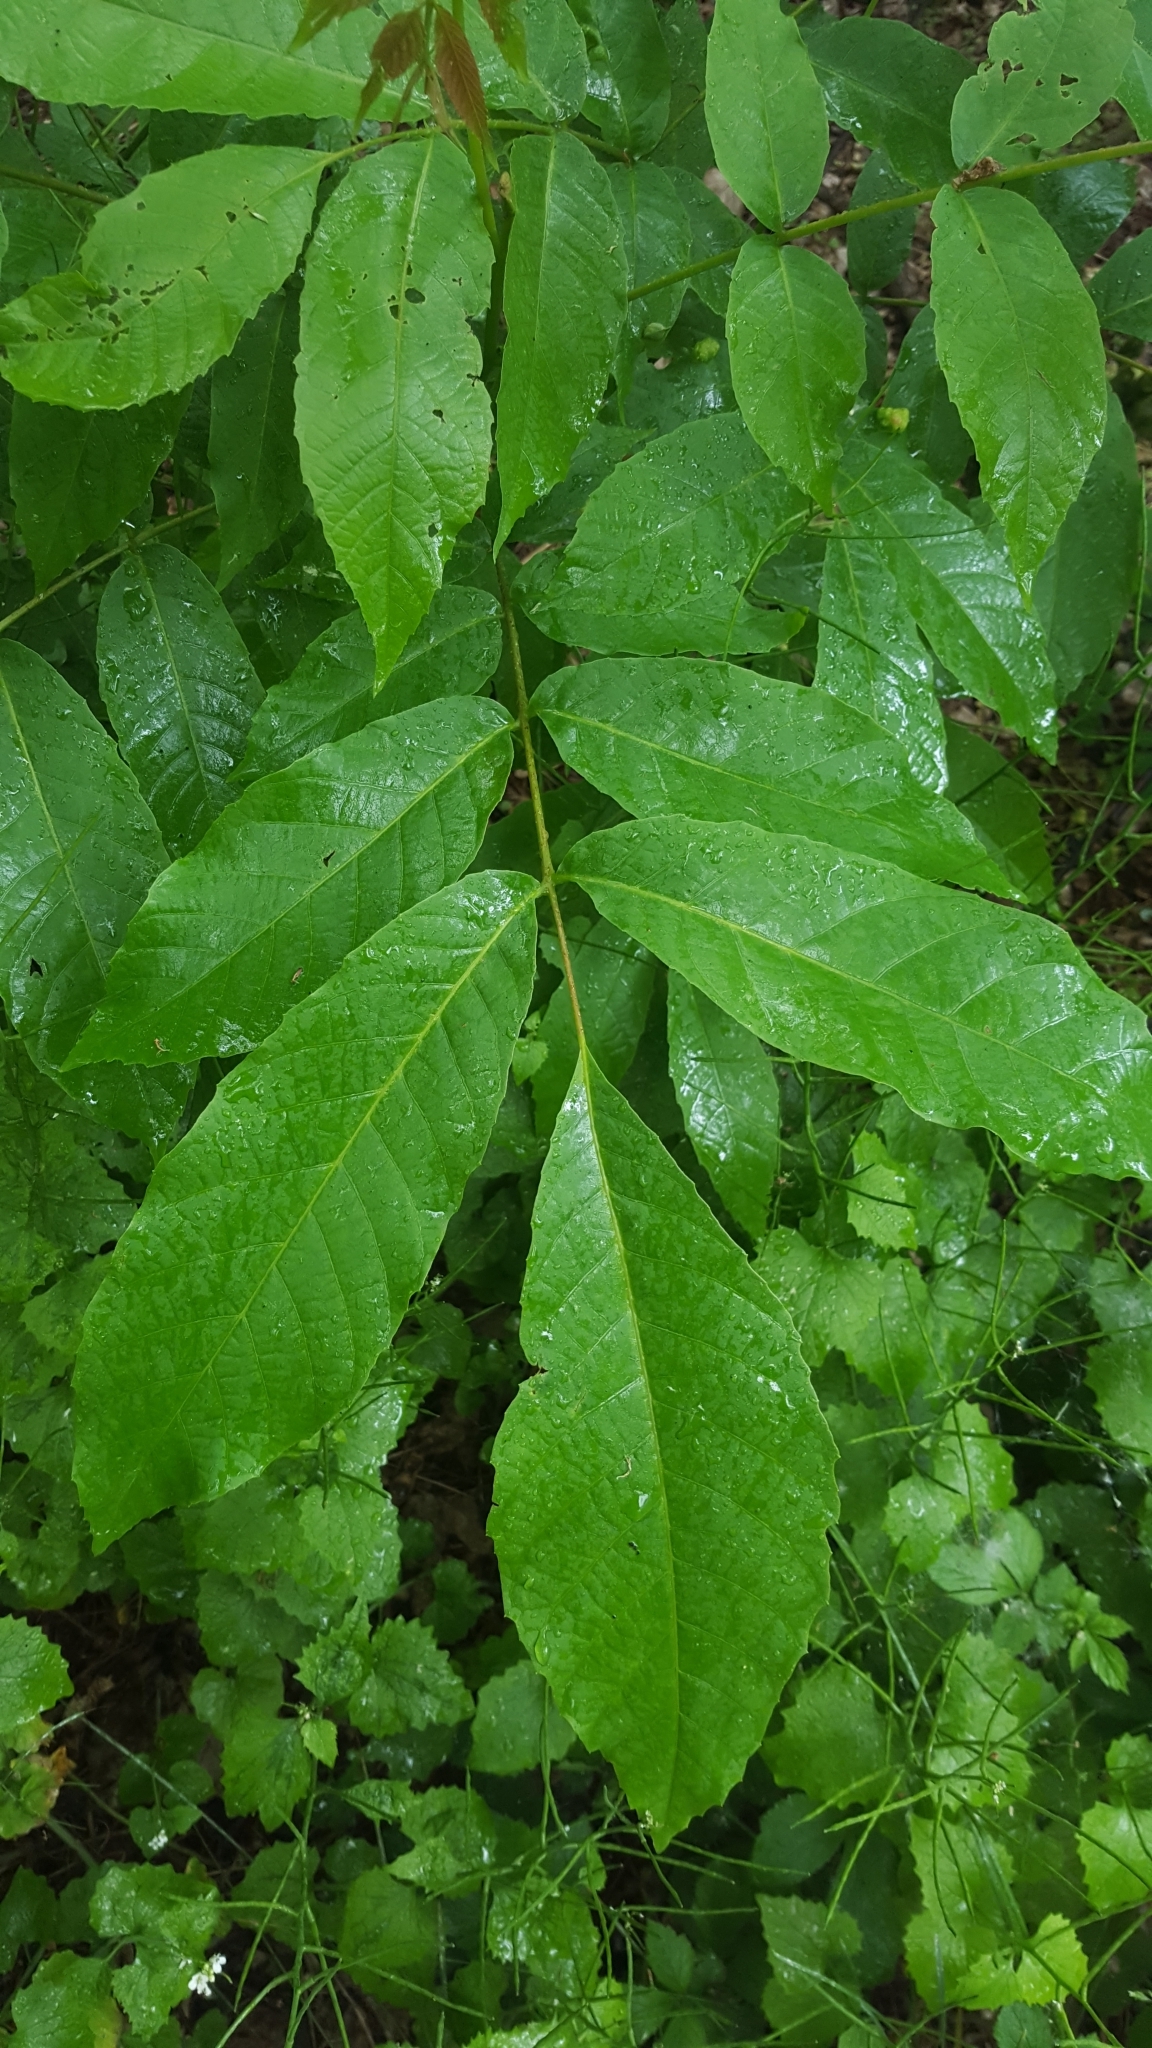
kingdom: Plantae
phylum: Tracheophyta
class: Magnoliopsida
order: Fagales
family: Juglandaceae
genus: Juglans
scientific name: Juglans regia
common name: Walnut
